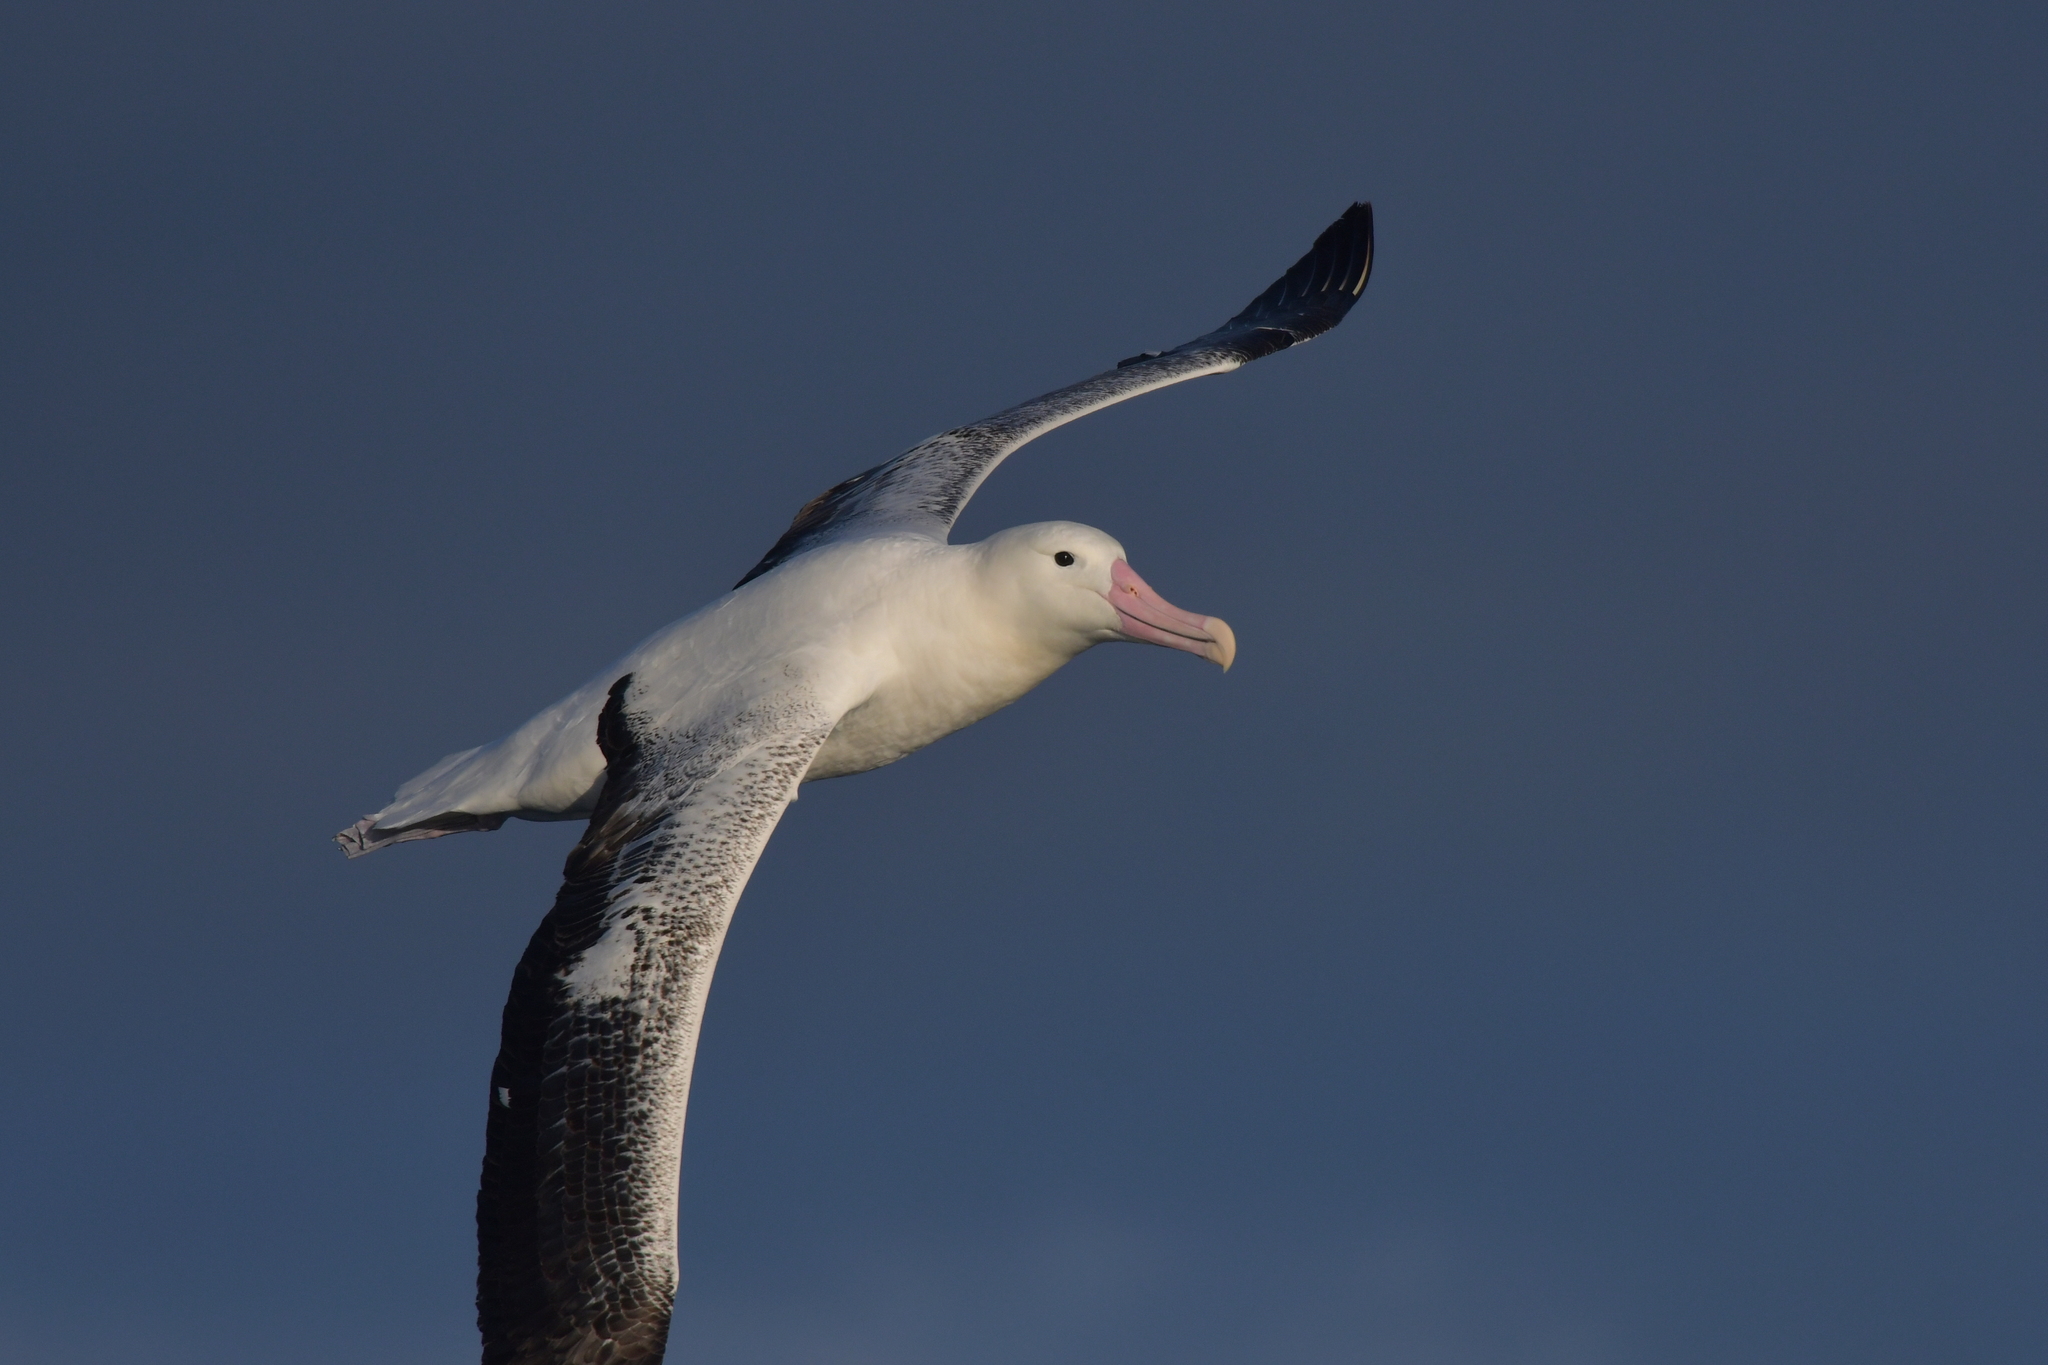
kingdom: Animalia
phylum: Chordata
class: Aves
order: Procellariiformes
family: Diomedeidae
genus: Diomedea
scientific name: Diomedea epomophora
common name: Southern royal albatross
